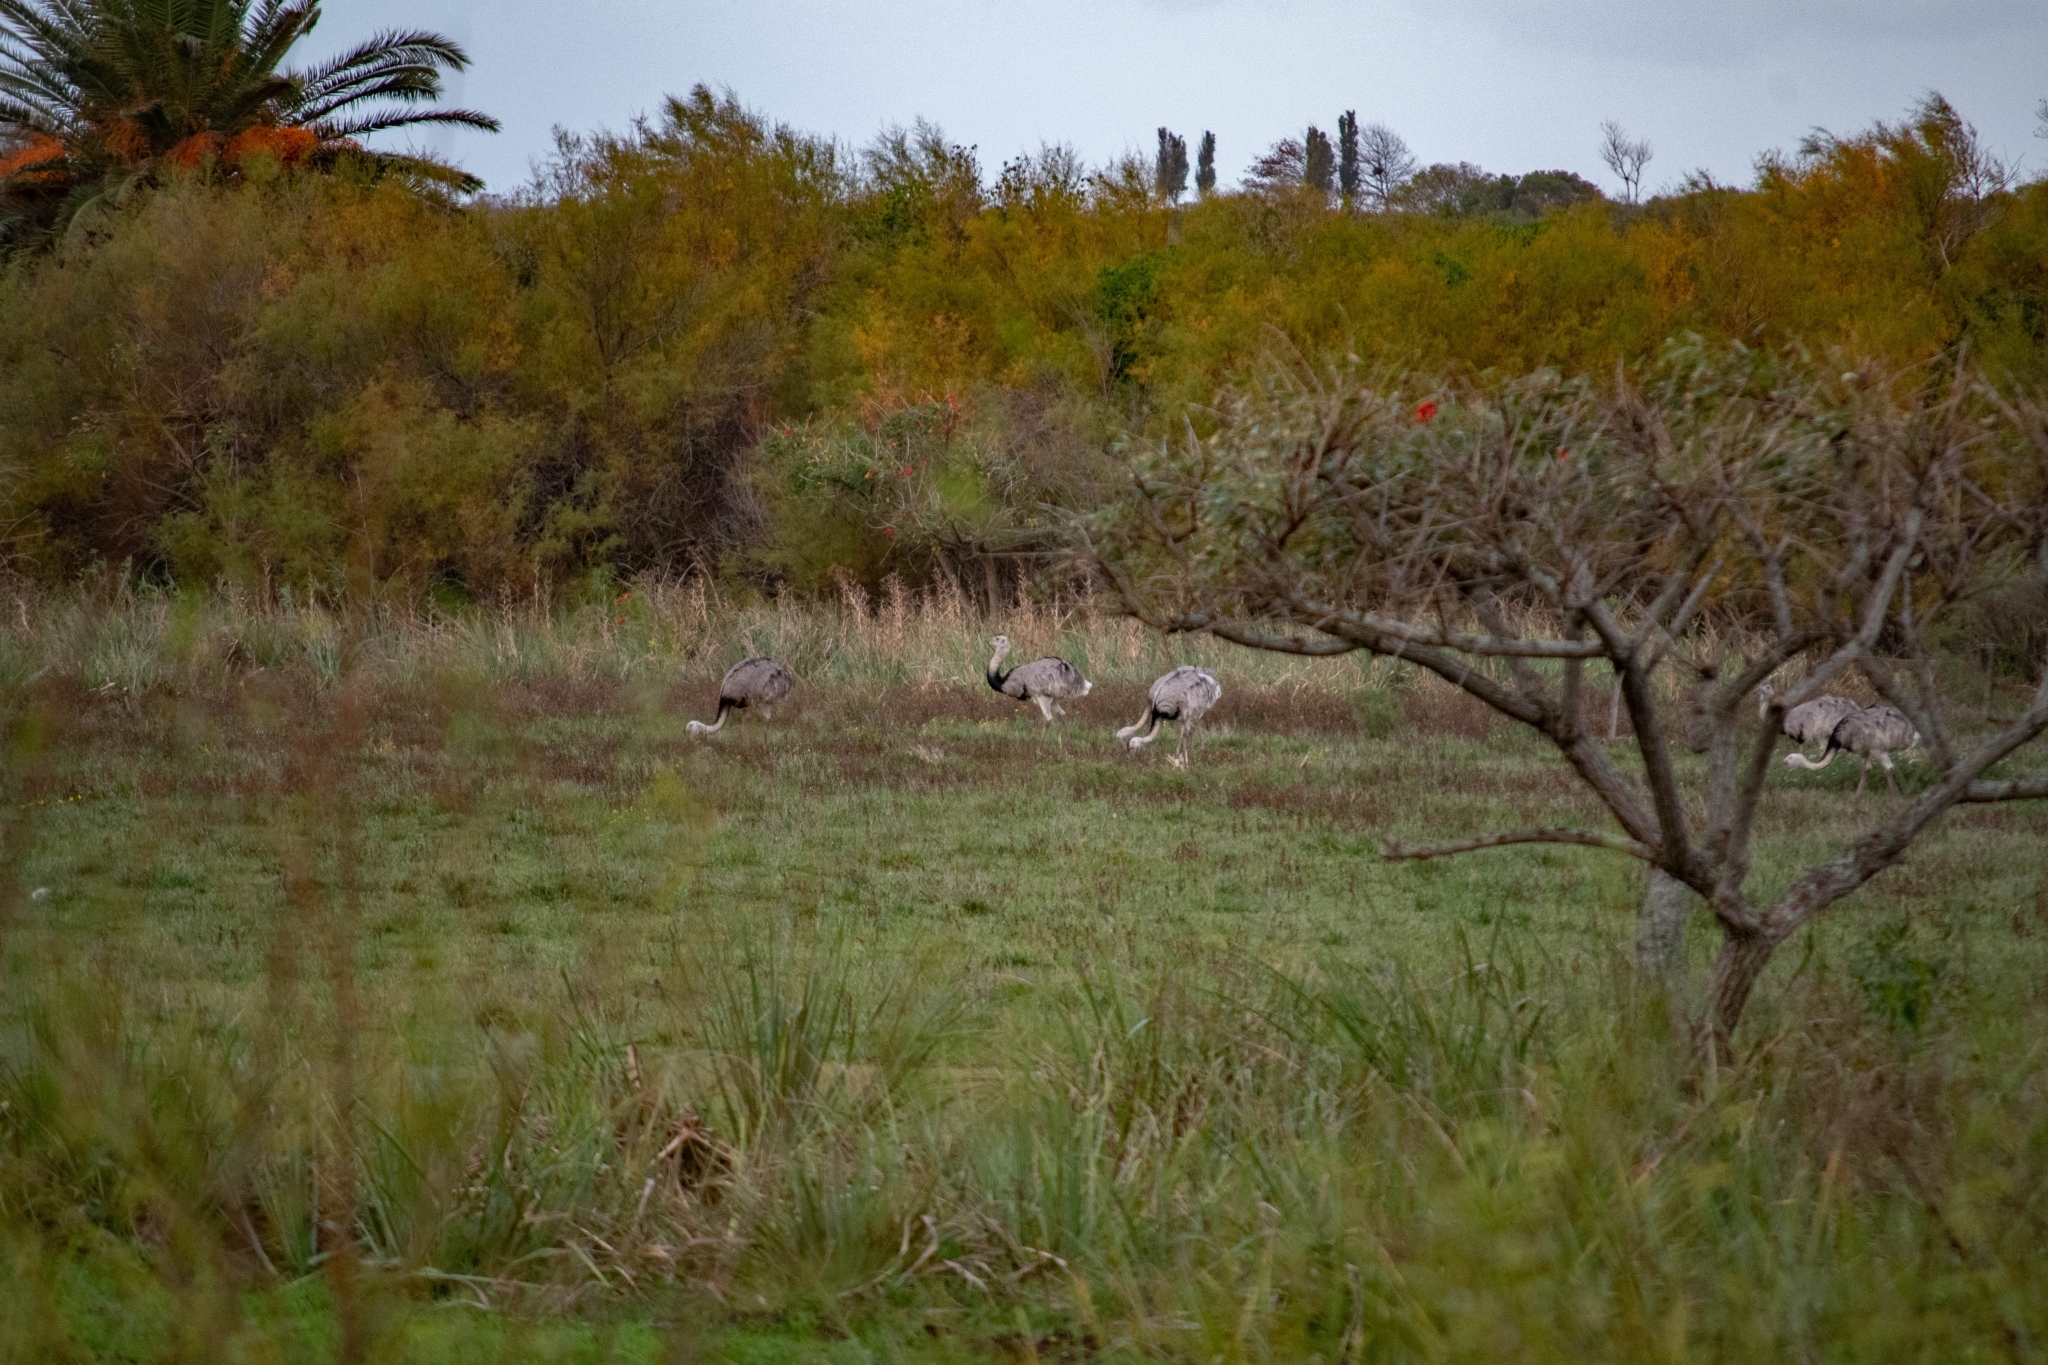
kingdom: Animalia
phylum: Chordata
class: Aves
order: Rheiformes
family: Rheidae
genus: Rhea
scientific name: Rhea americana
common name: Greater rhea
